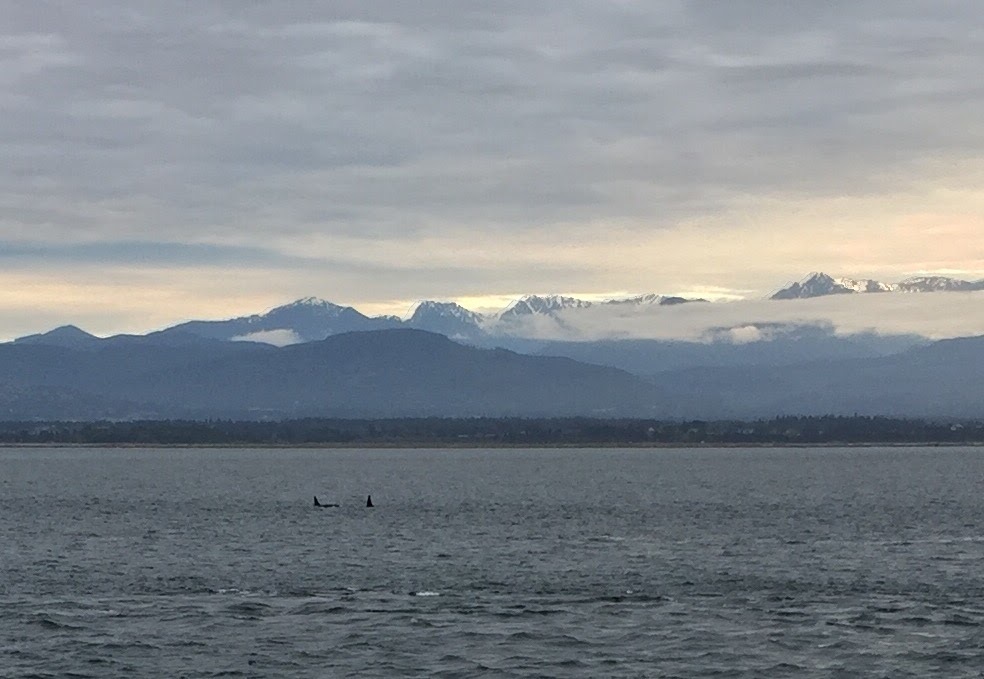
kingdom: Animalia
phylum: Chordata
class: Mammalia
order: Cetacea
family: Delphinidae
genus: Orcinus
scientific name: Orcinus orca
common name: Killer whale
